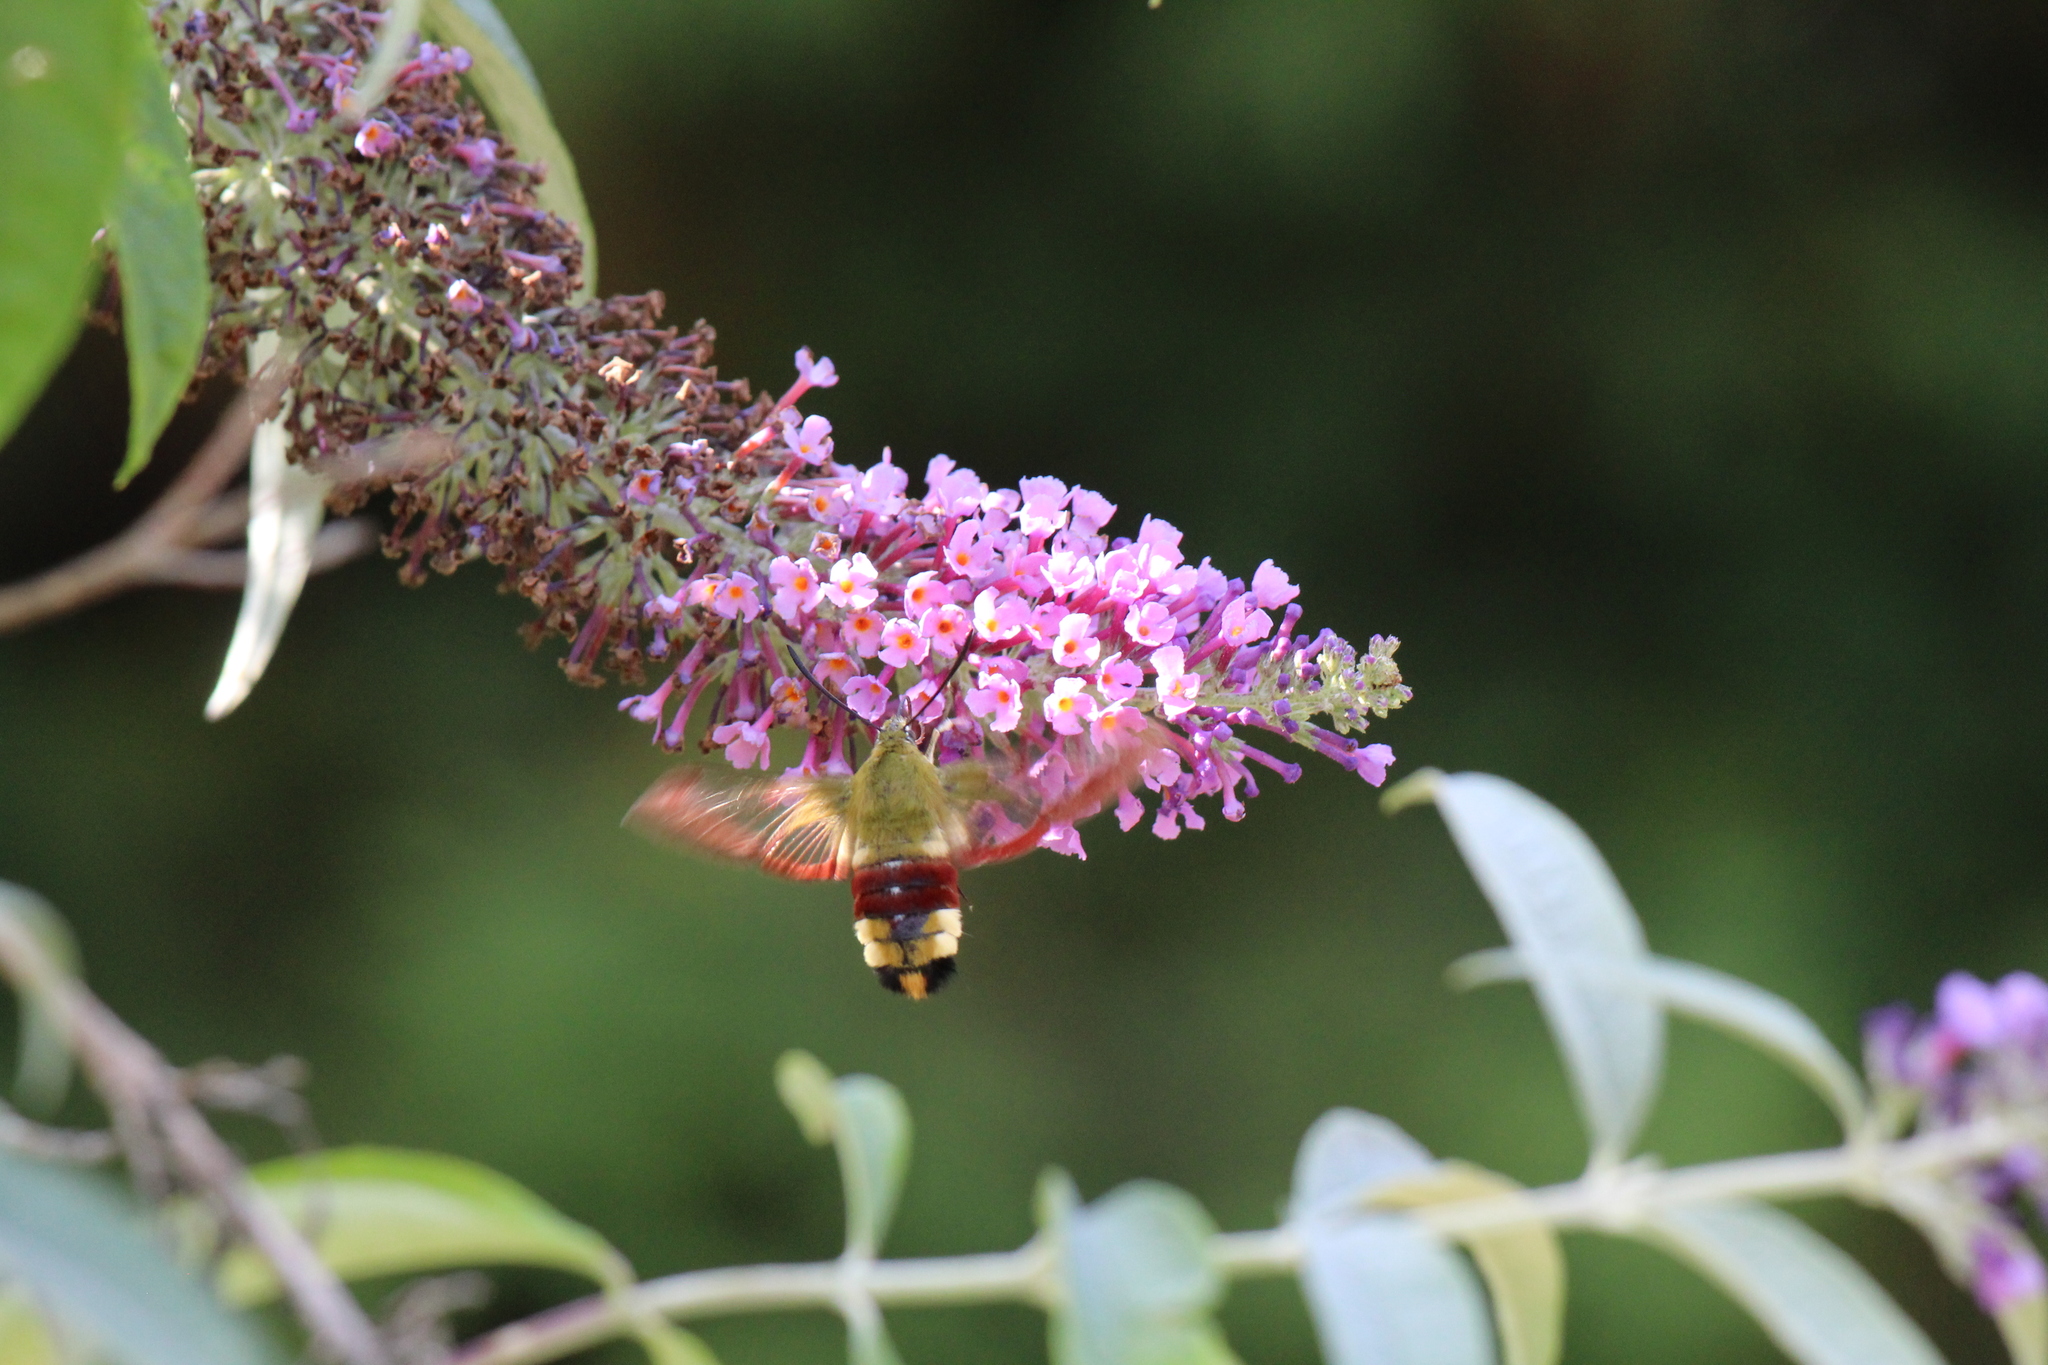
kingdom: Animalia
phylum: Arthropoda
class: Insecta
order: Lepidoptera
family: Sphingidae
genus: Hemaris
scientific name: Hemaris fuciformis
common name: Broad-bordered bee hawk-moth
